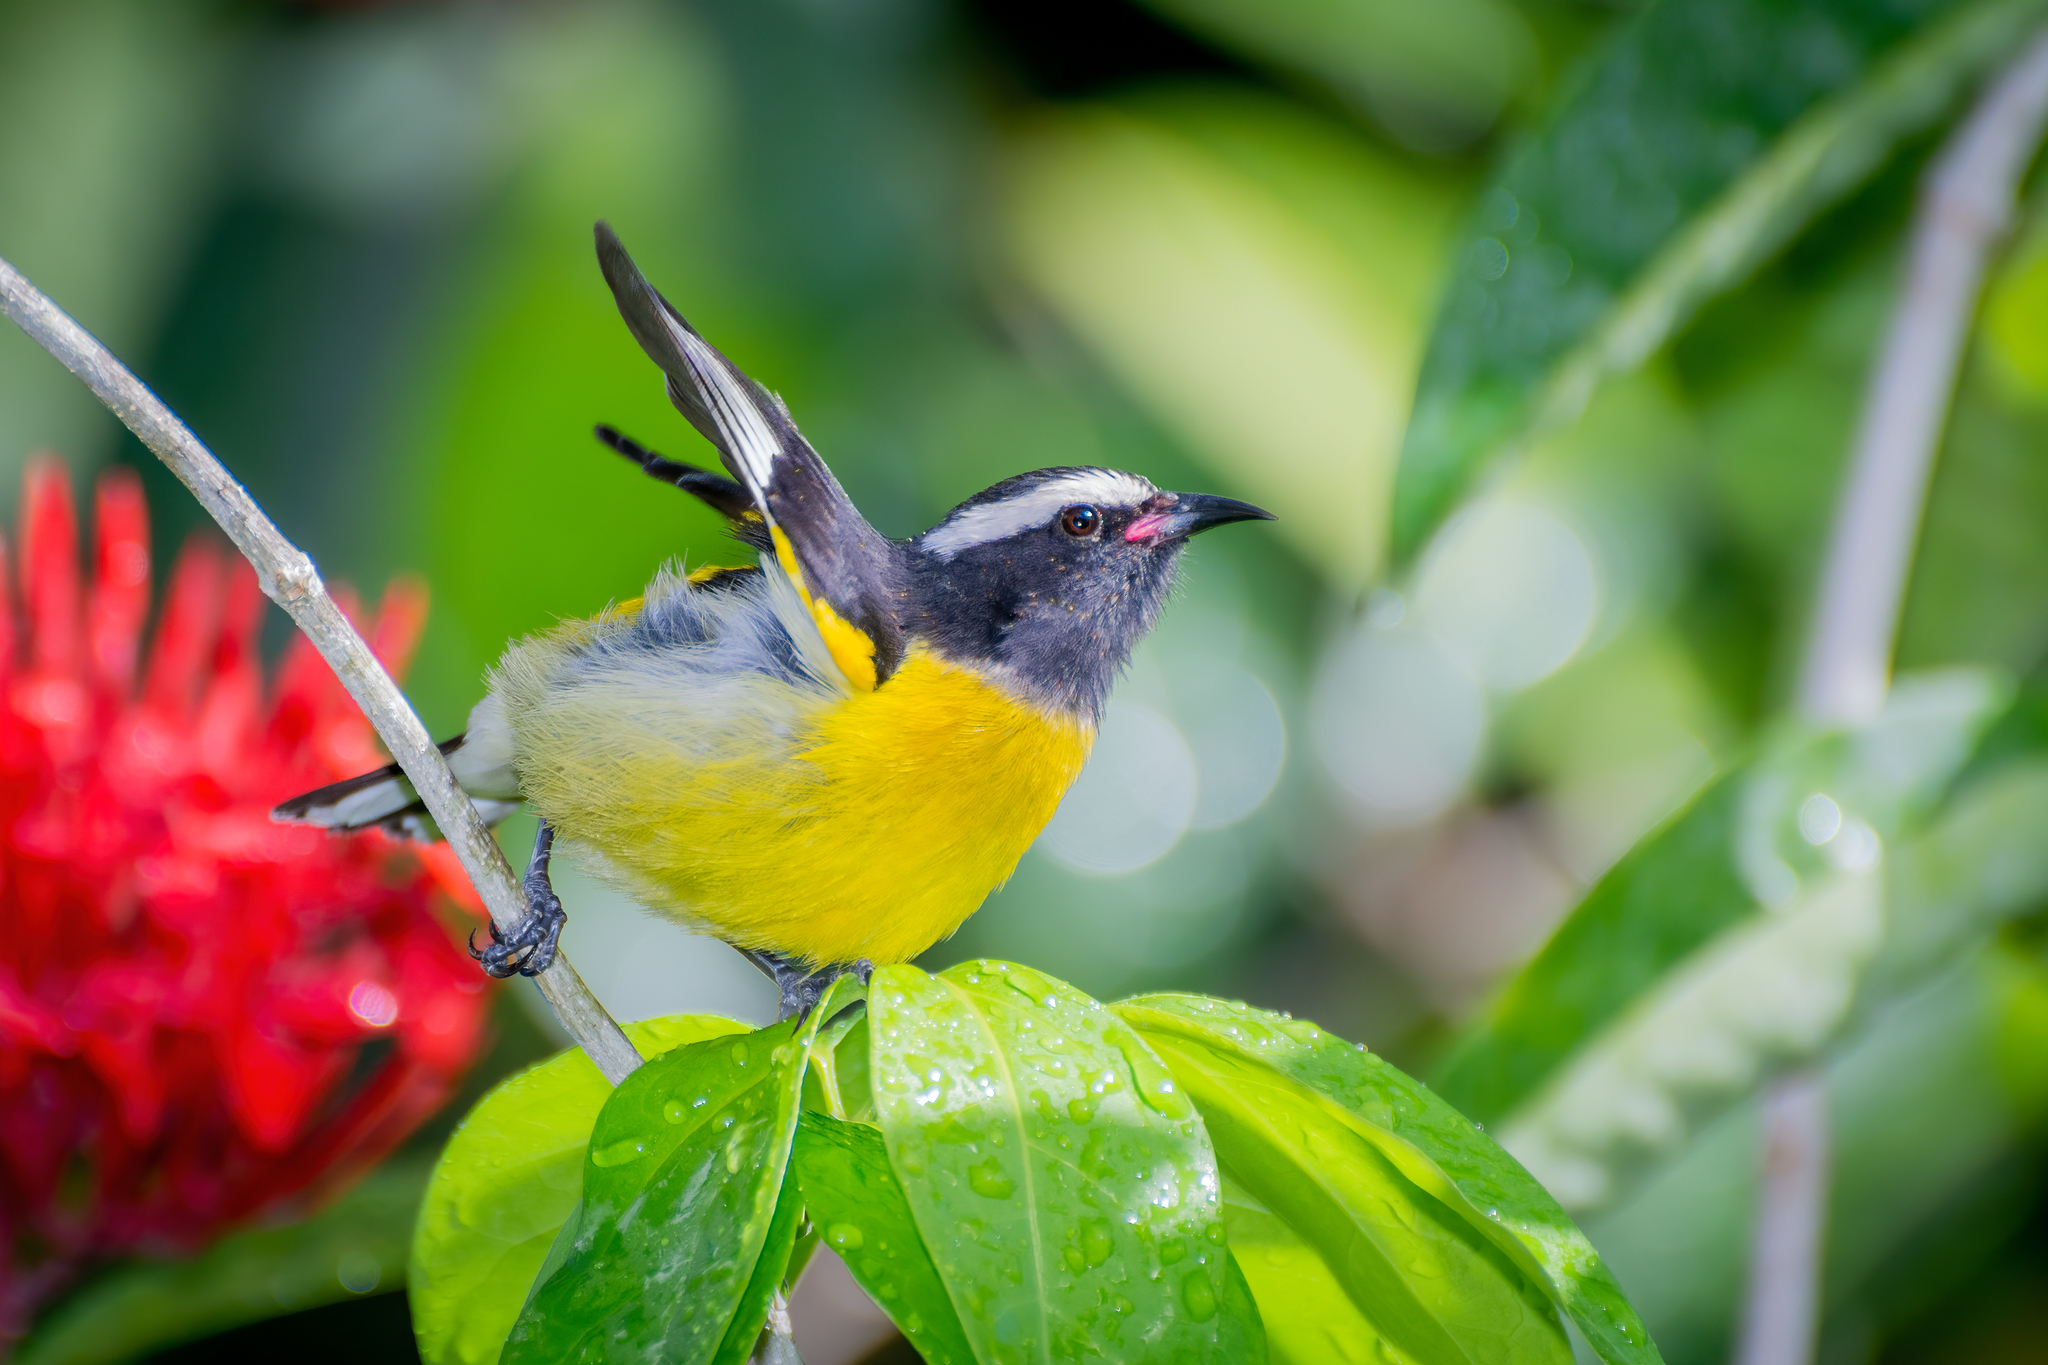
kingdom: Animalia
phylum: Chordata
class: Aves
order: Passeriformes
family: Thraupidae
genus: Coereba
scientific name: Coereba flaveola
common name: Bananaquit
